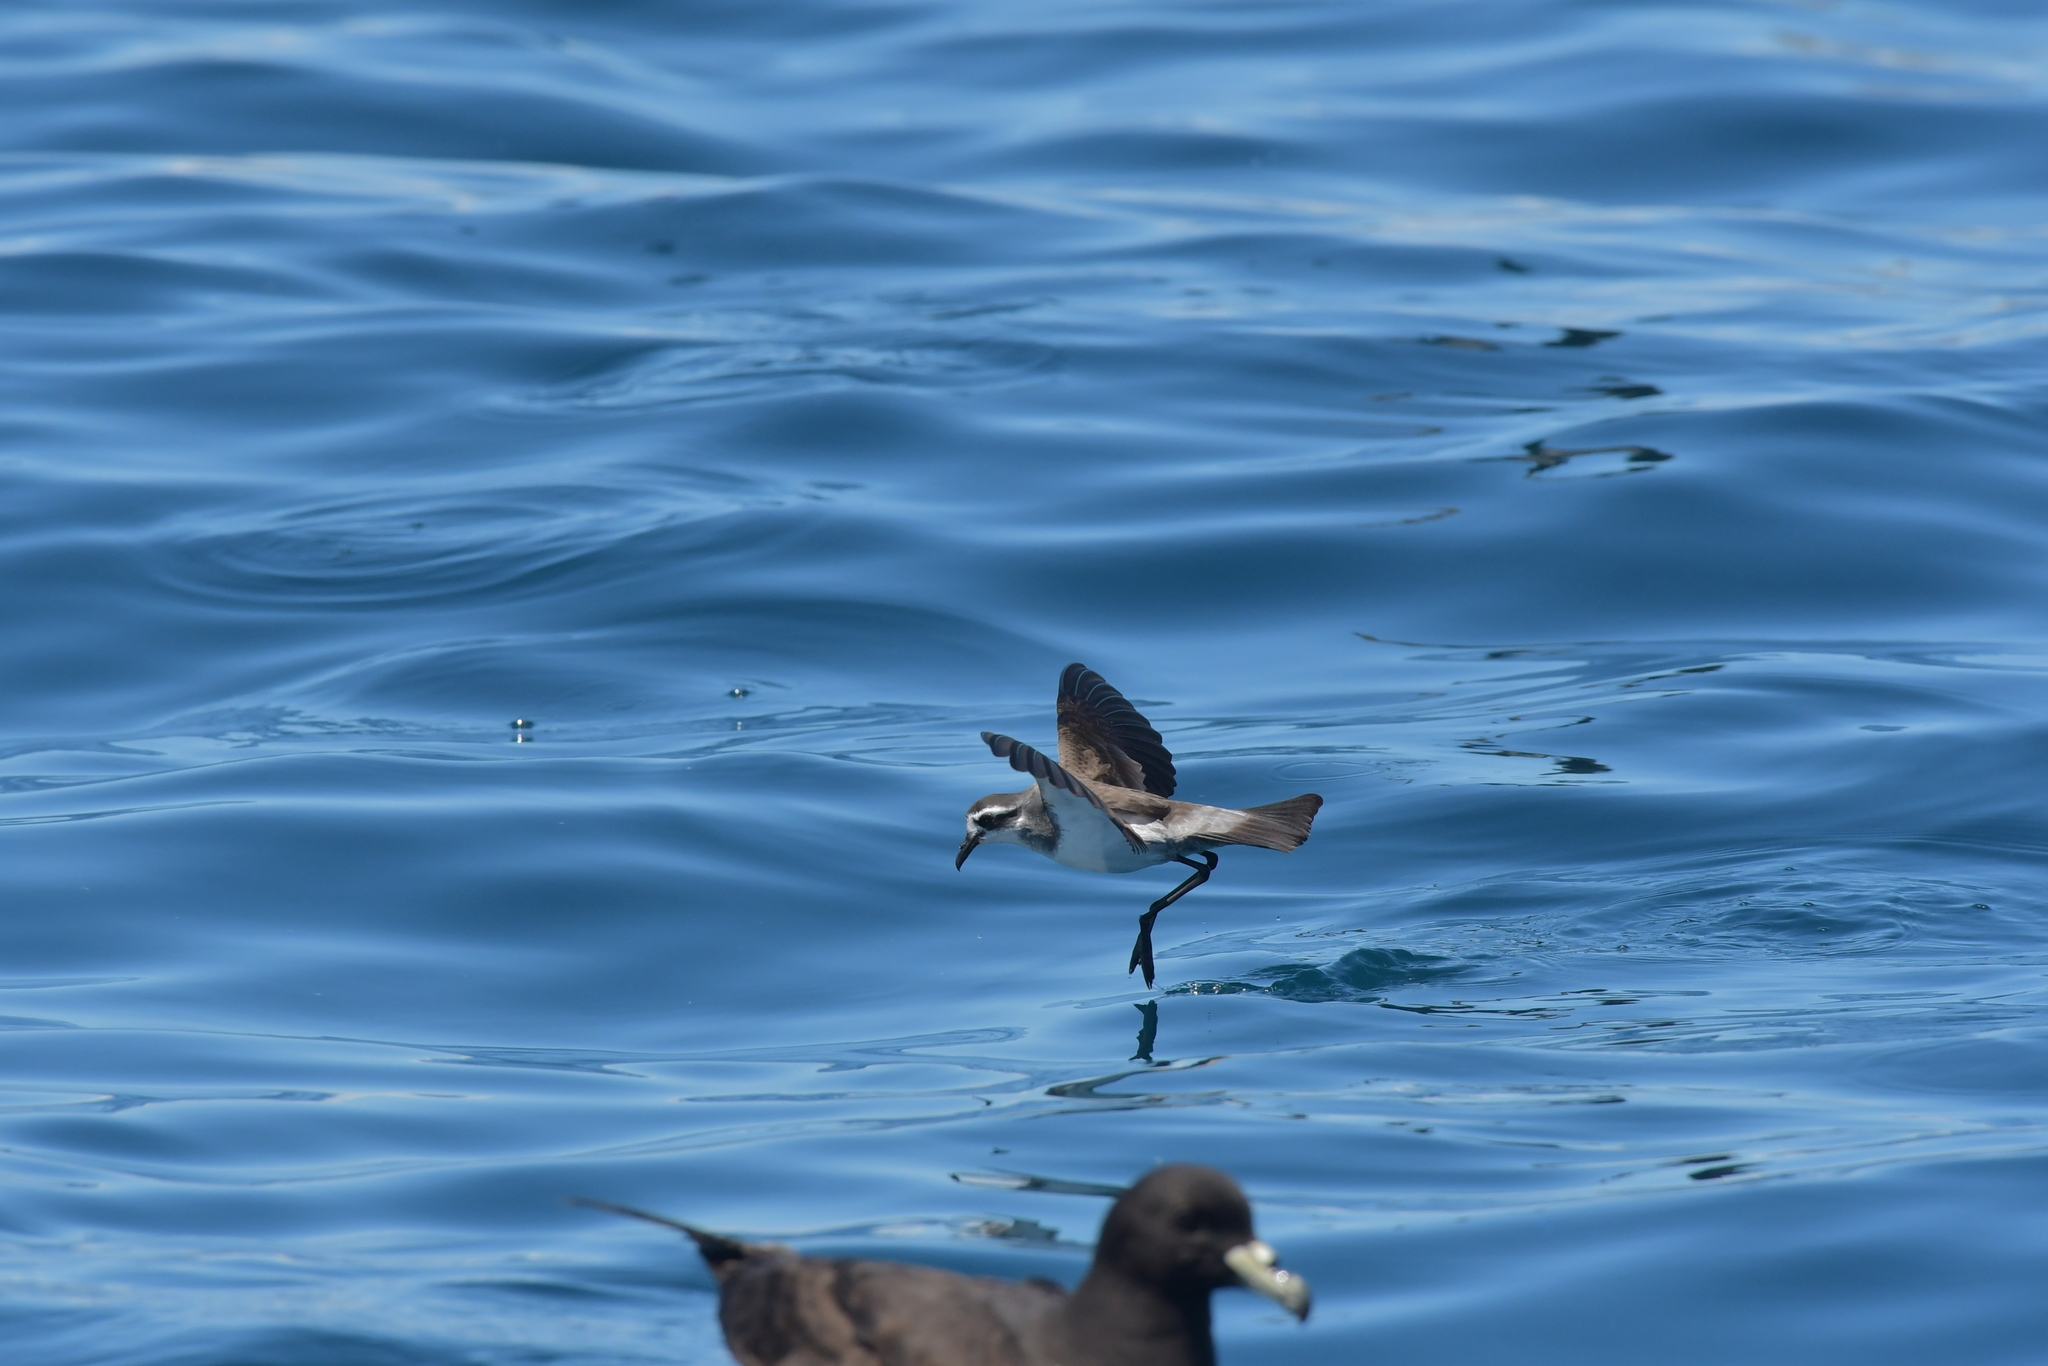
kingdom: Animalia
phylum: Chordata
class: Aves
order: Procellariiformes
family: Hydrobatidae
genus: Pelagodroma
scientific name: Pelagodroma marina
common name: White-faced storm-petrel
